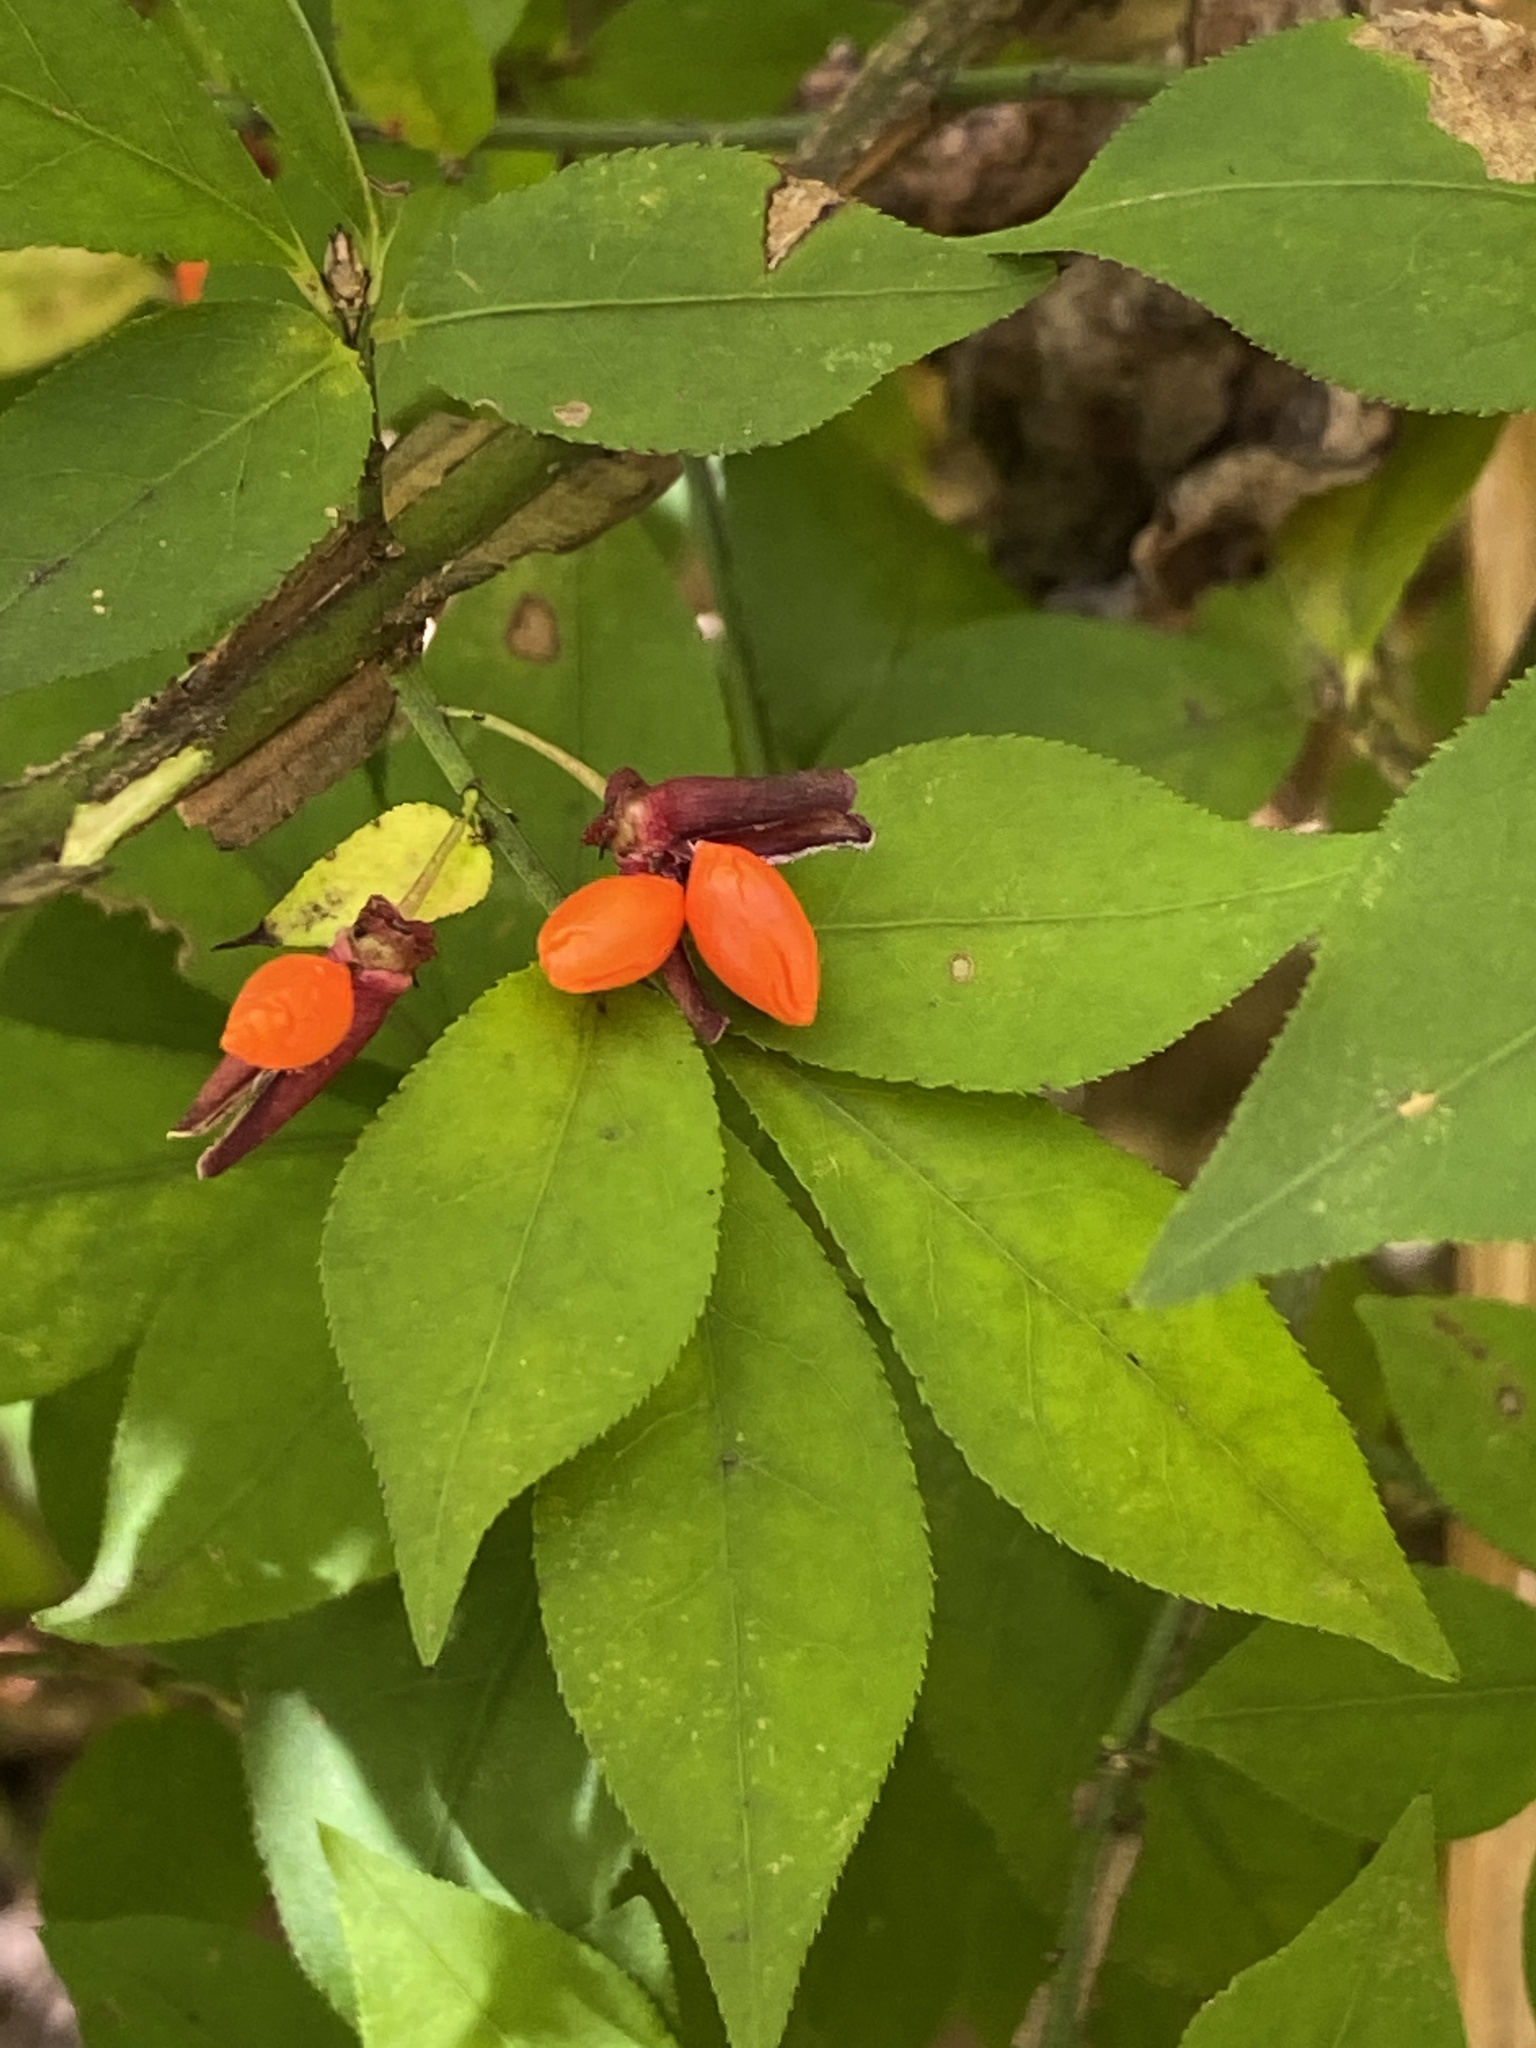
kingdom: Plantae
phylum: Tracheophyta
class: Magnoliopsida
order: Celastrales
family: Celastraceae
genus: Euonymus
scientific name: Euonymus alatus
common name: Winged euonymus
